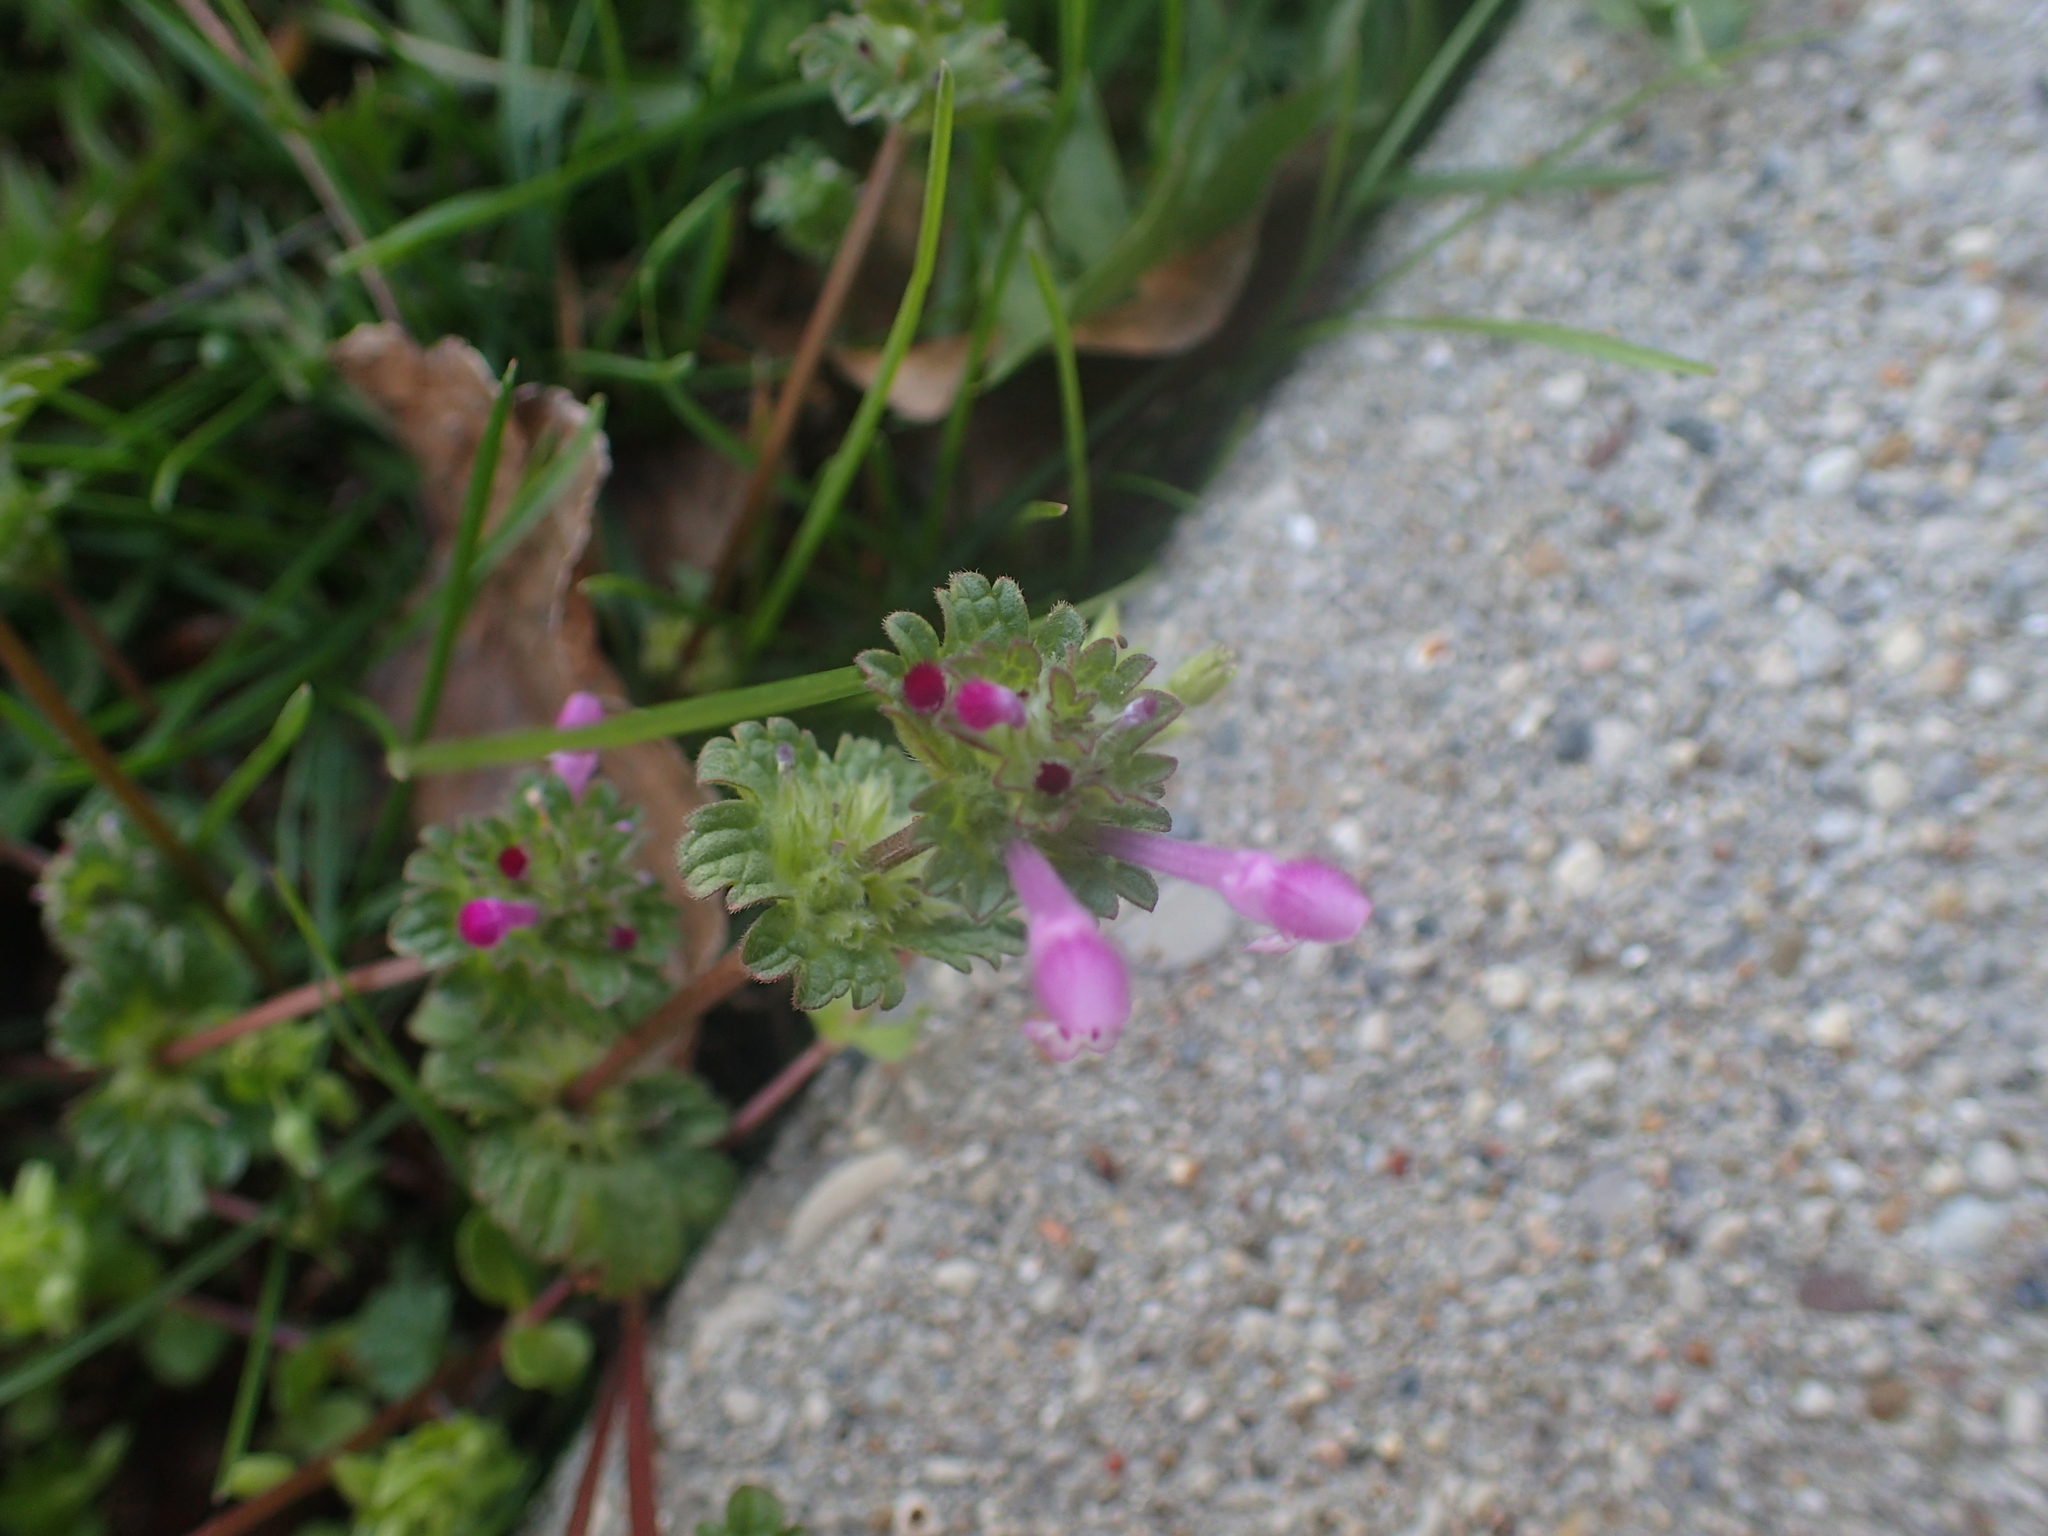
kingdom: Plantae
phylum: Tracheophyta
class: Magnoliopsida
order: Lamiales
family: Lamiaceae
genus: Lamium
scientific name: Lamium amplexicaule
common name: Henbit dead-nettle
